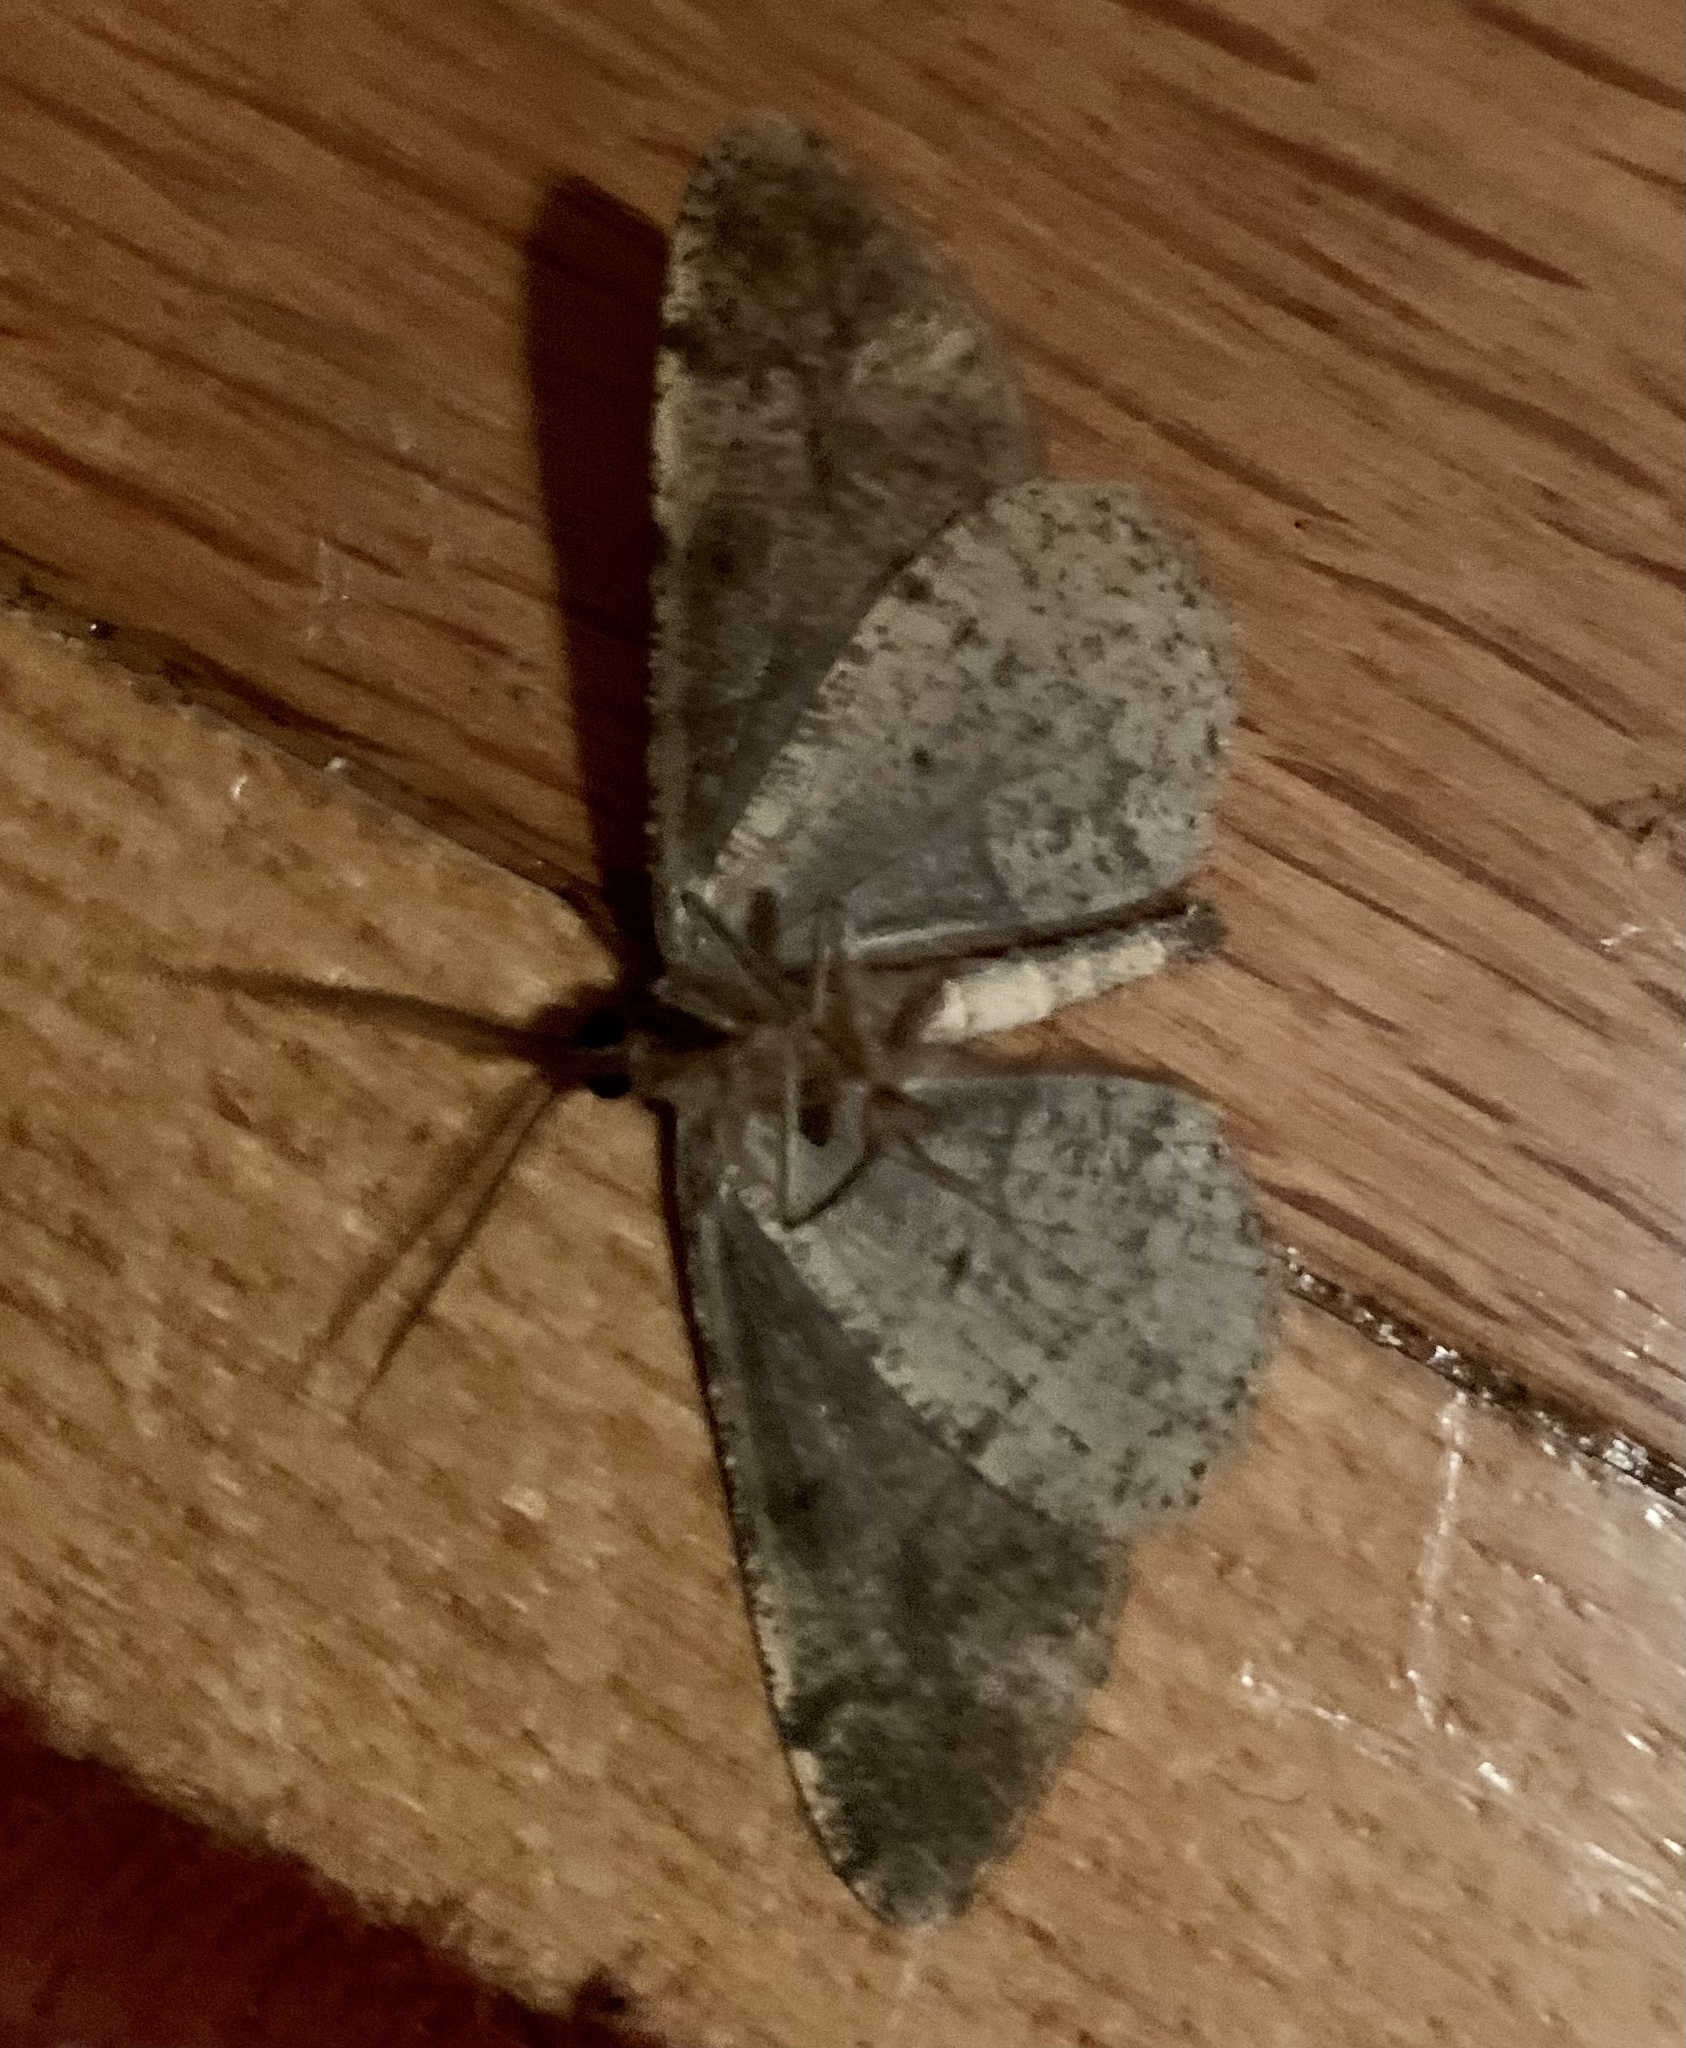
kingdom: Animalia
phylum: Arthropoda
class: Insecta
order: Lepidoptera
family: Geometridae
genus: Alcis
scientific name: Alcis repandata
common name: Mottled beauty
